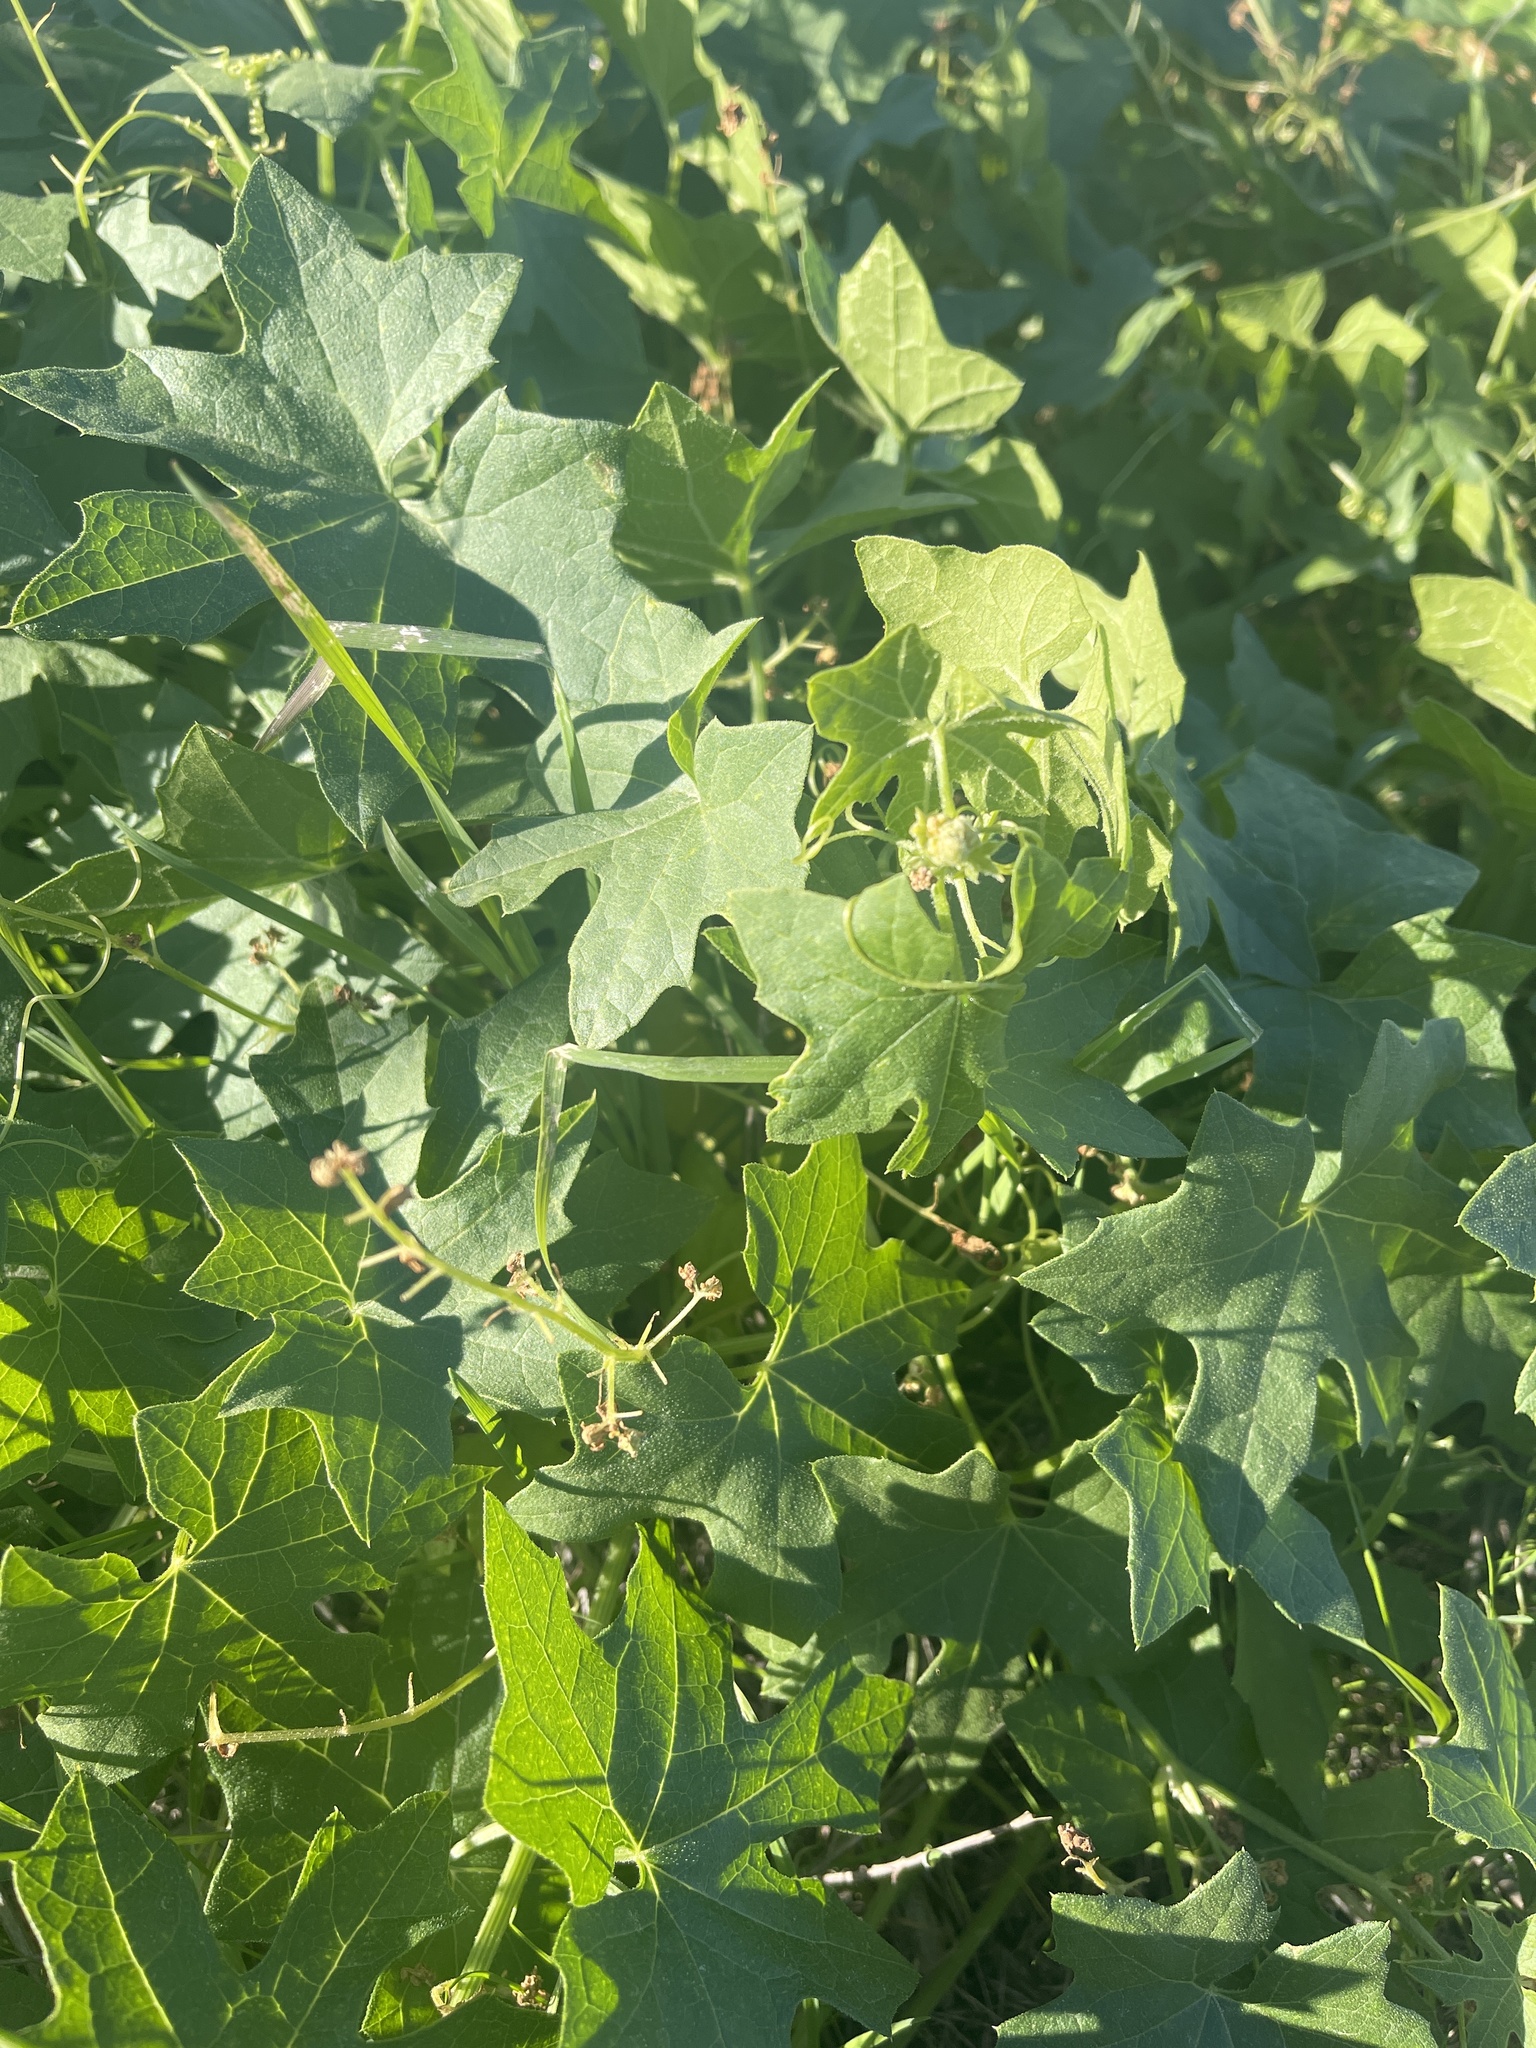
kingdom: Plantae
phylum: Tracheophyta
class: Magnoliopsida
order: Cucurbitales
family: Cucurbitaceae
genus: Marah
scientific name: Marah macrocarpa
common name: Cucamonga manroot
